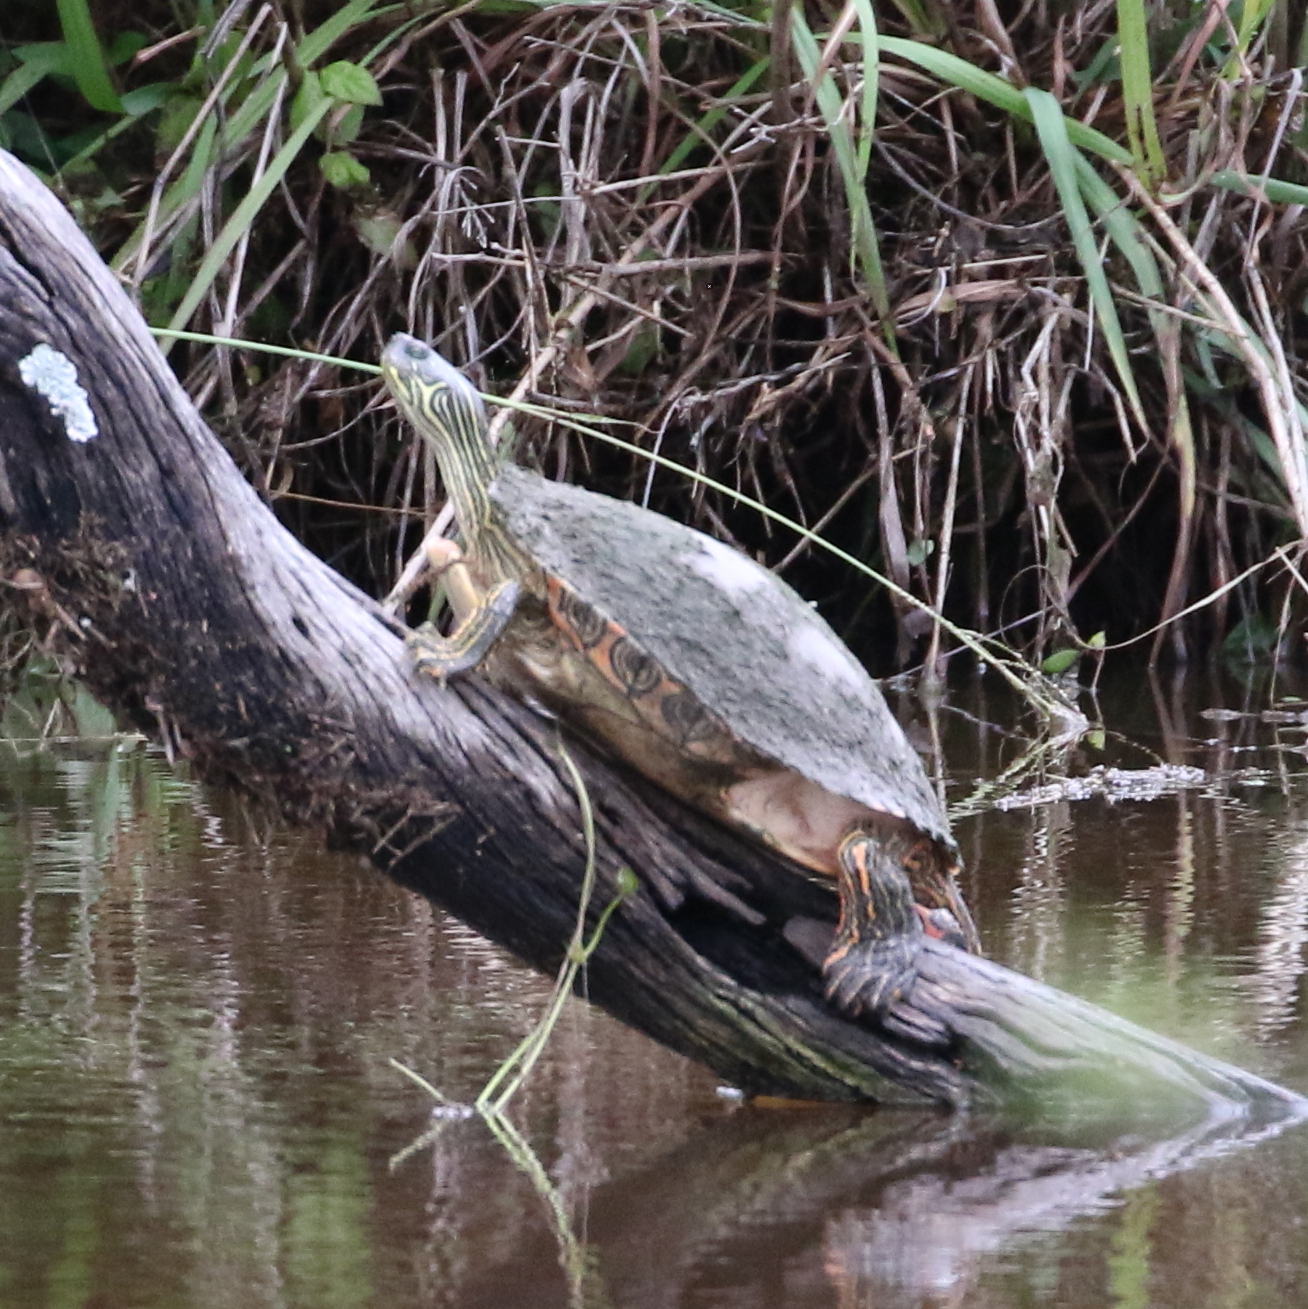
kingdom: Animalia
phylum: Chordata
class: Testudines
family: Emydidae
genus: Pseudemys
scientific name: Pseudemys texana
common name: Texas river cooter
